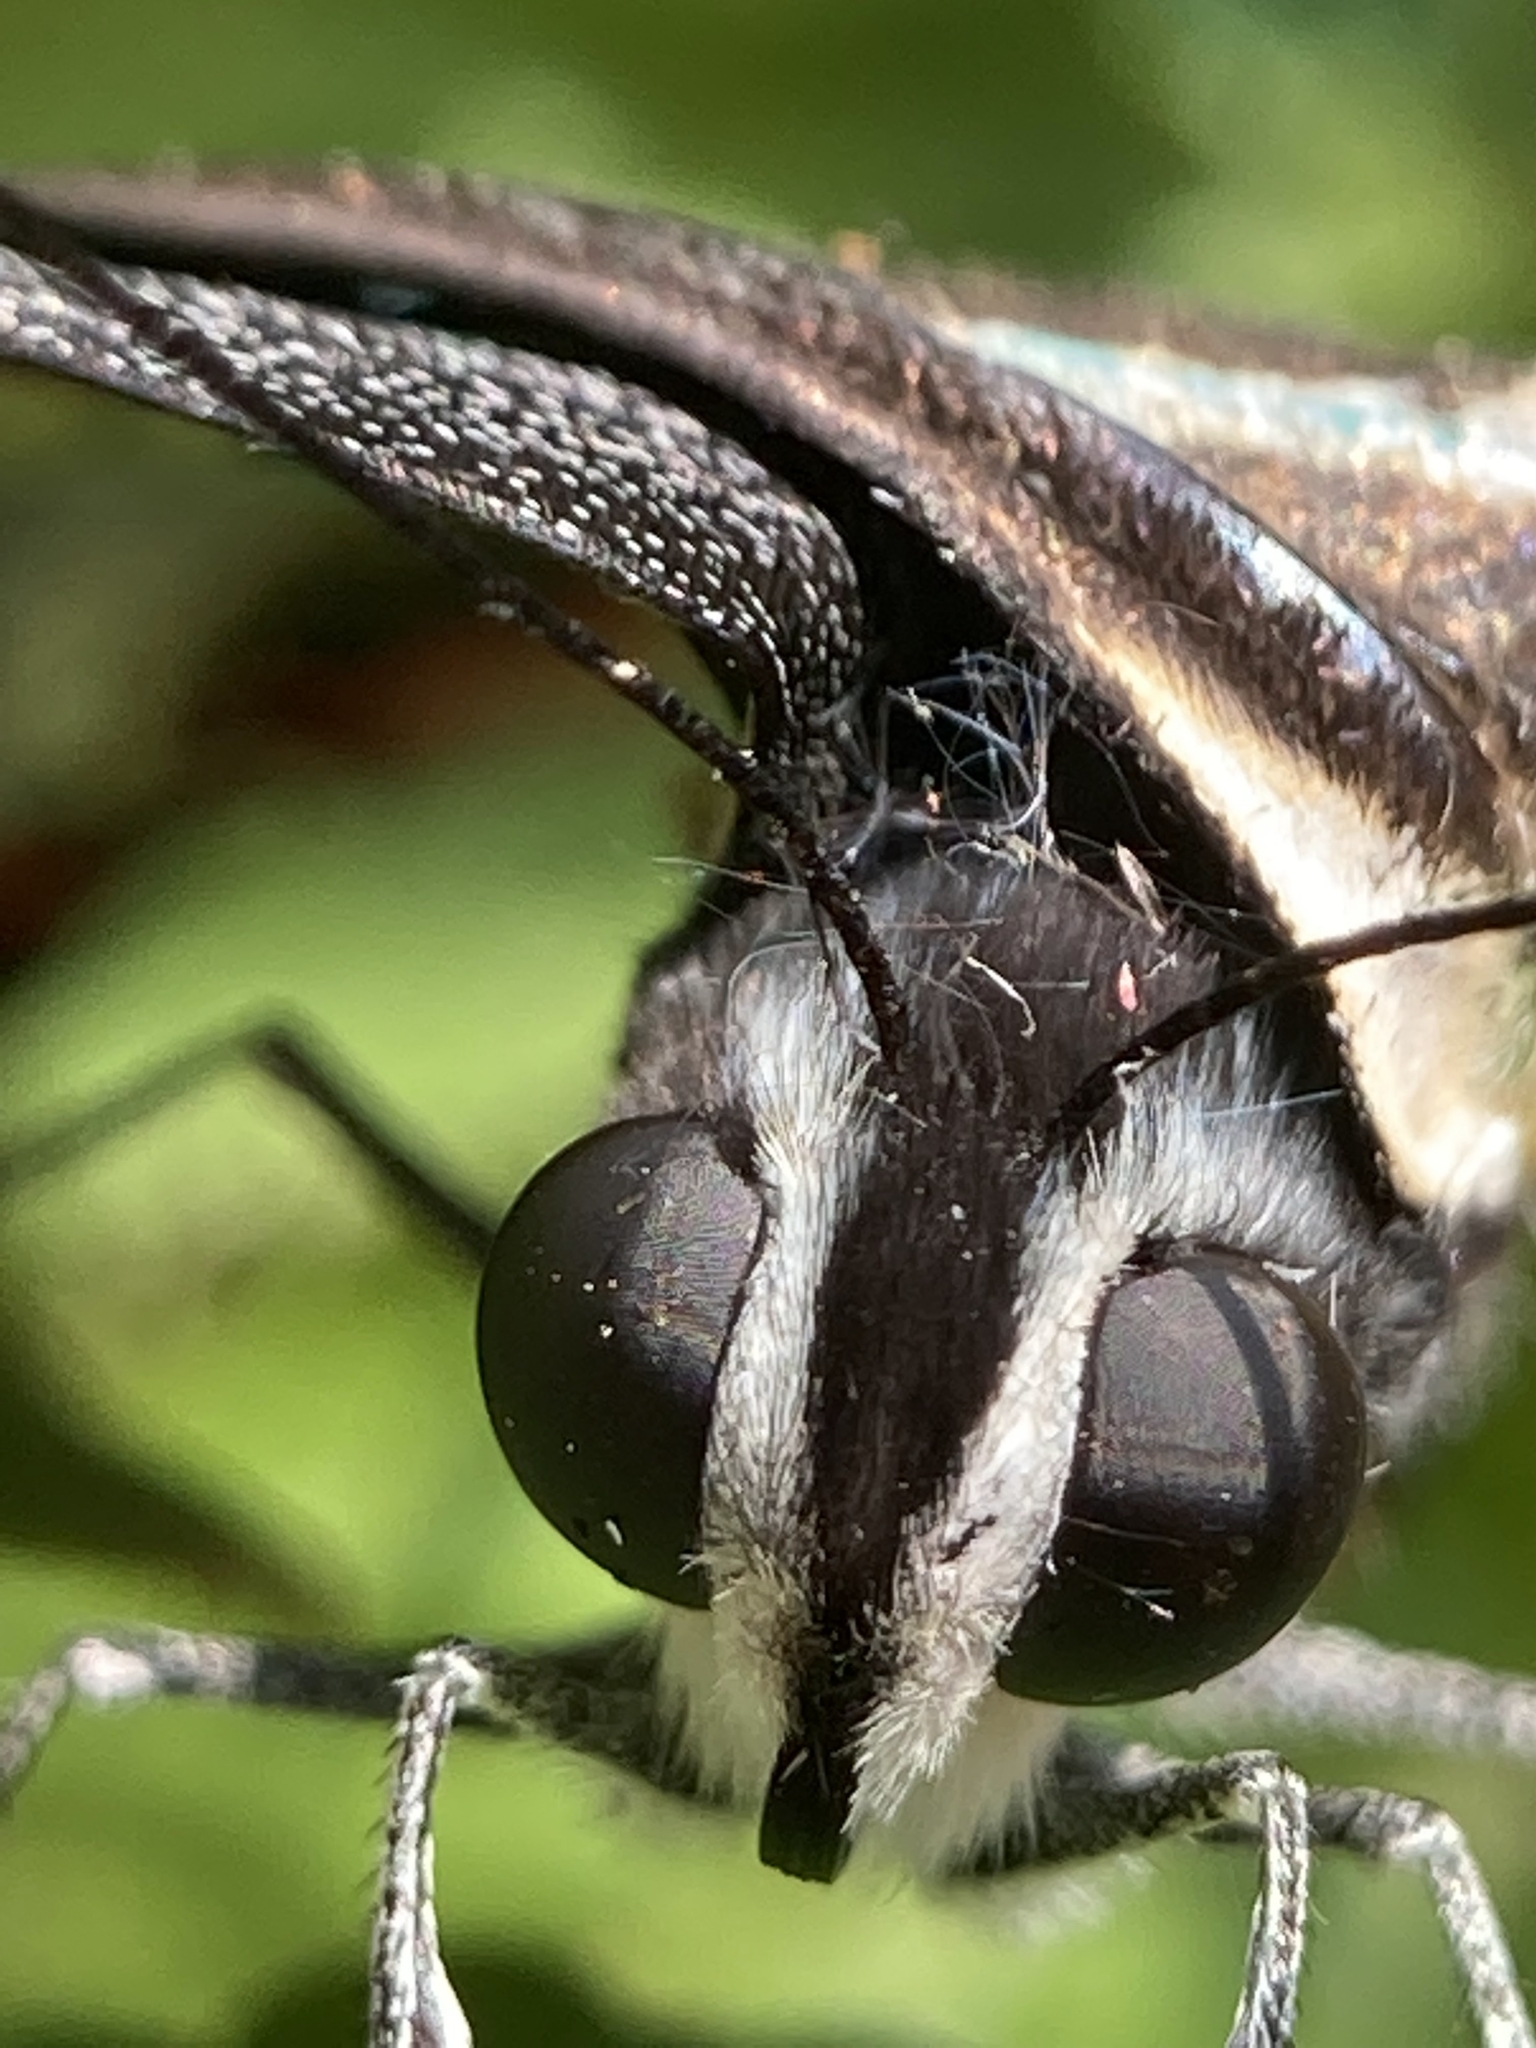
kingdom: Animalia
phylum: Arthropoda
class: Insecta
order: Lepidoptera
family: Papilionidae
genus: Graphium
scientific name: Graphium doson
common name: Common jay
